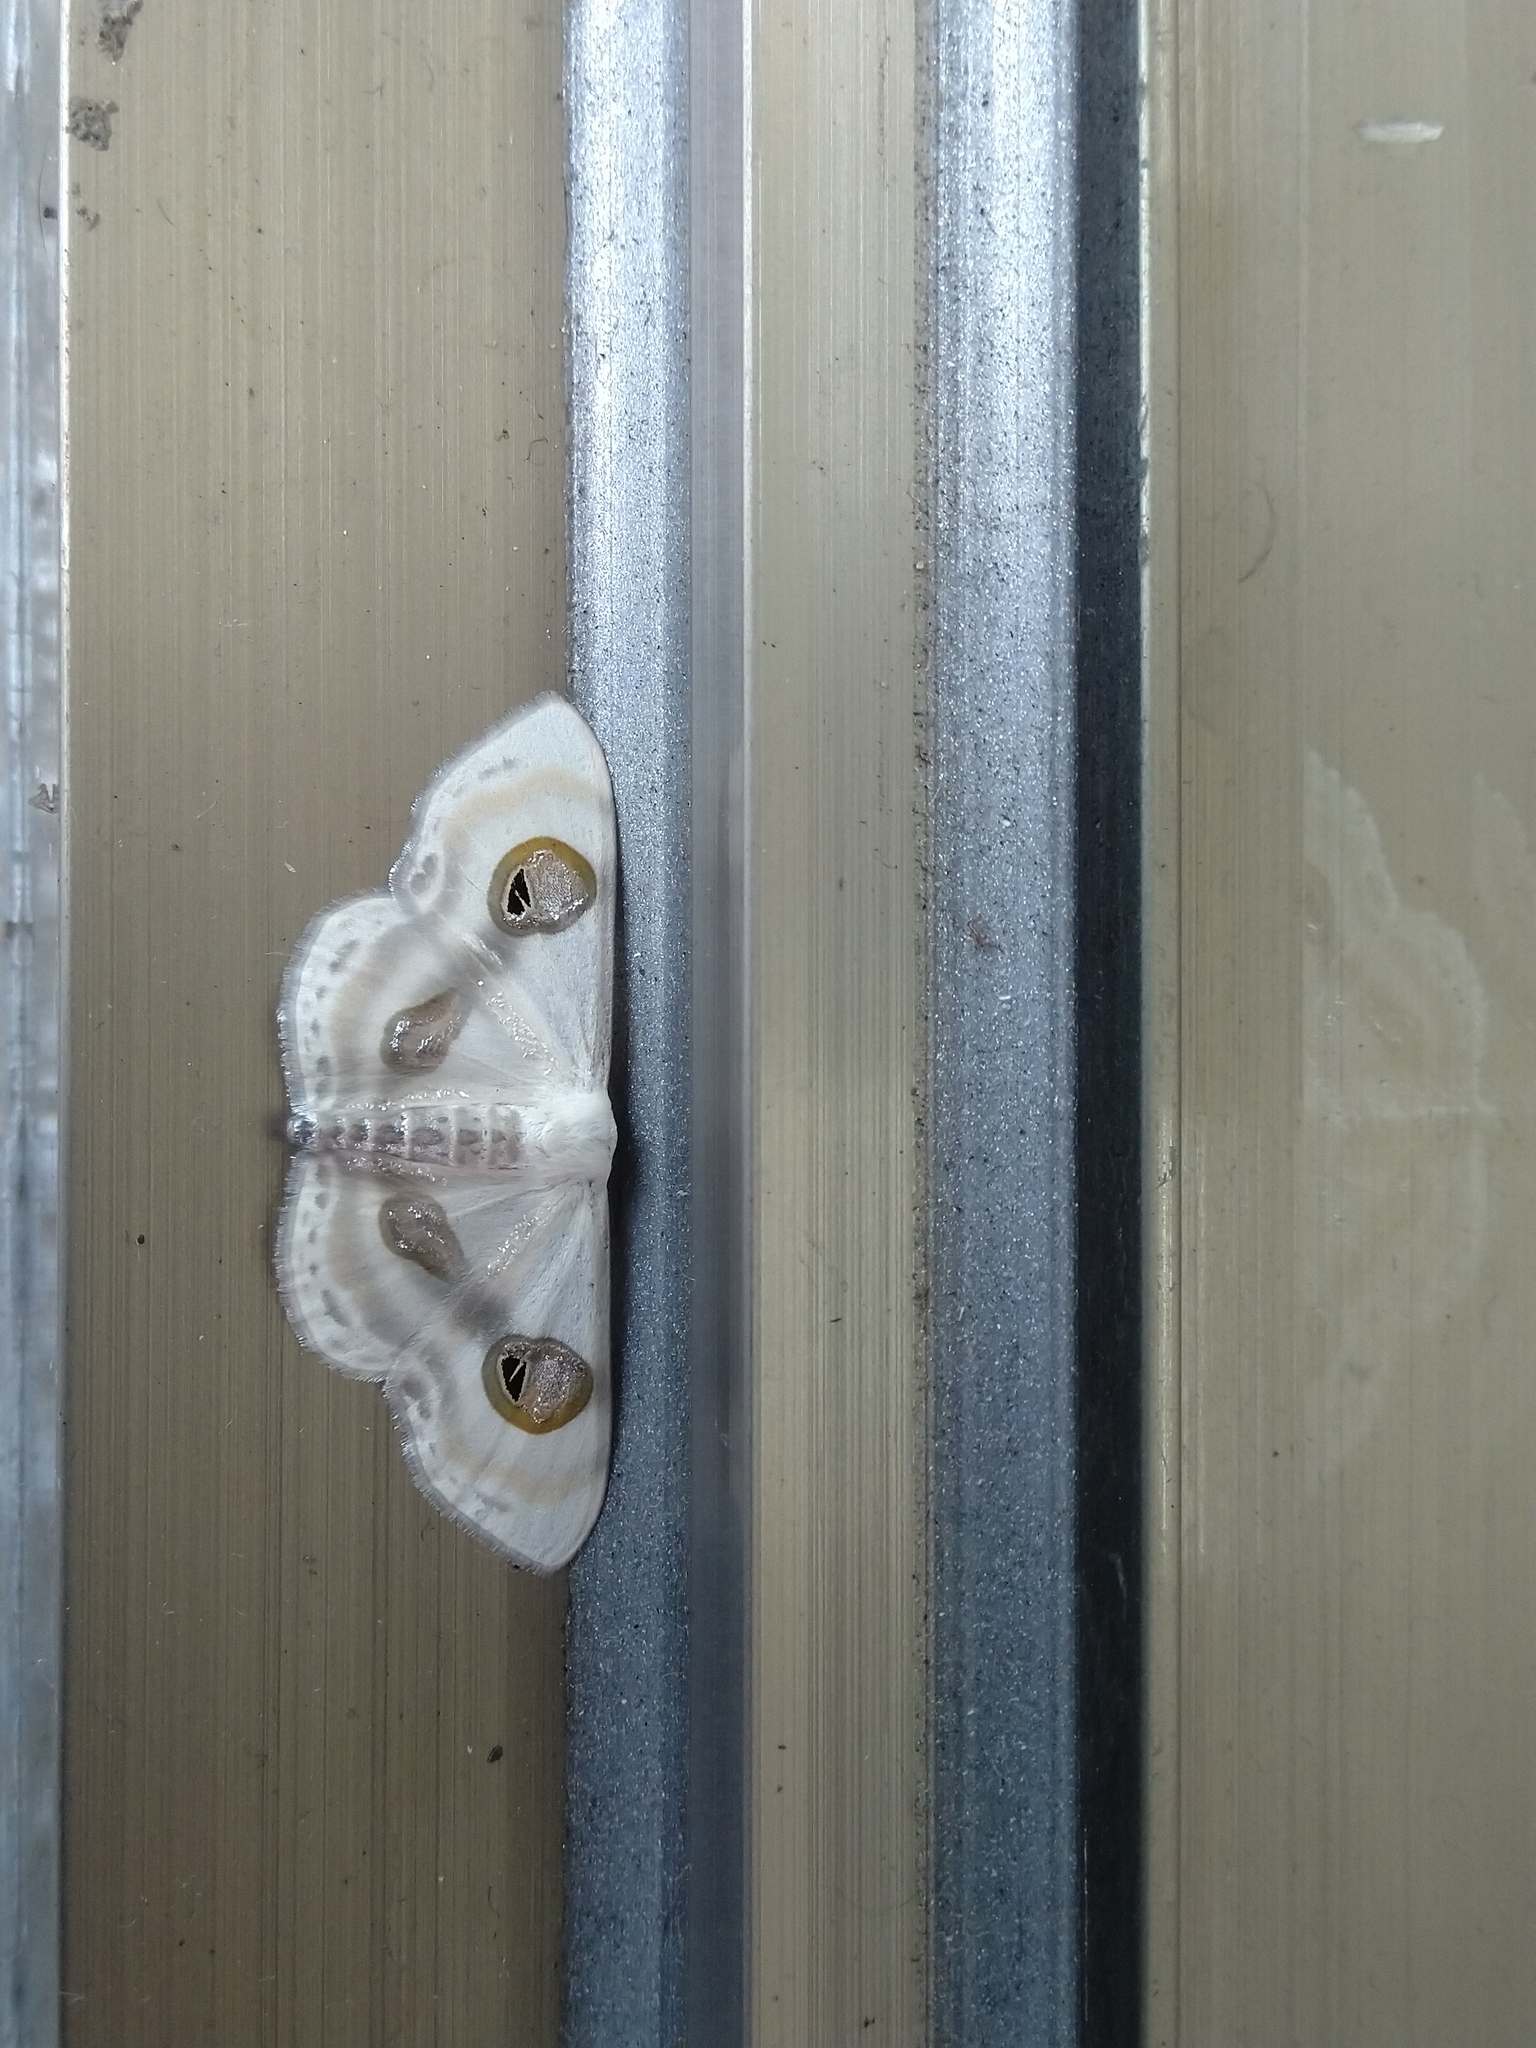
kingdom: Animalia
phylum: Arthropoda
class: Insecta
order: Lepidoptera
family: Geometridae
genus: Problepsis
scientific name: Problepsis conjunctiva
